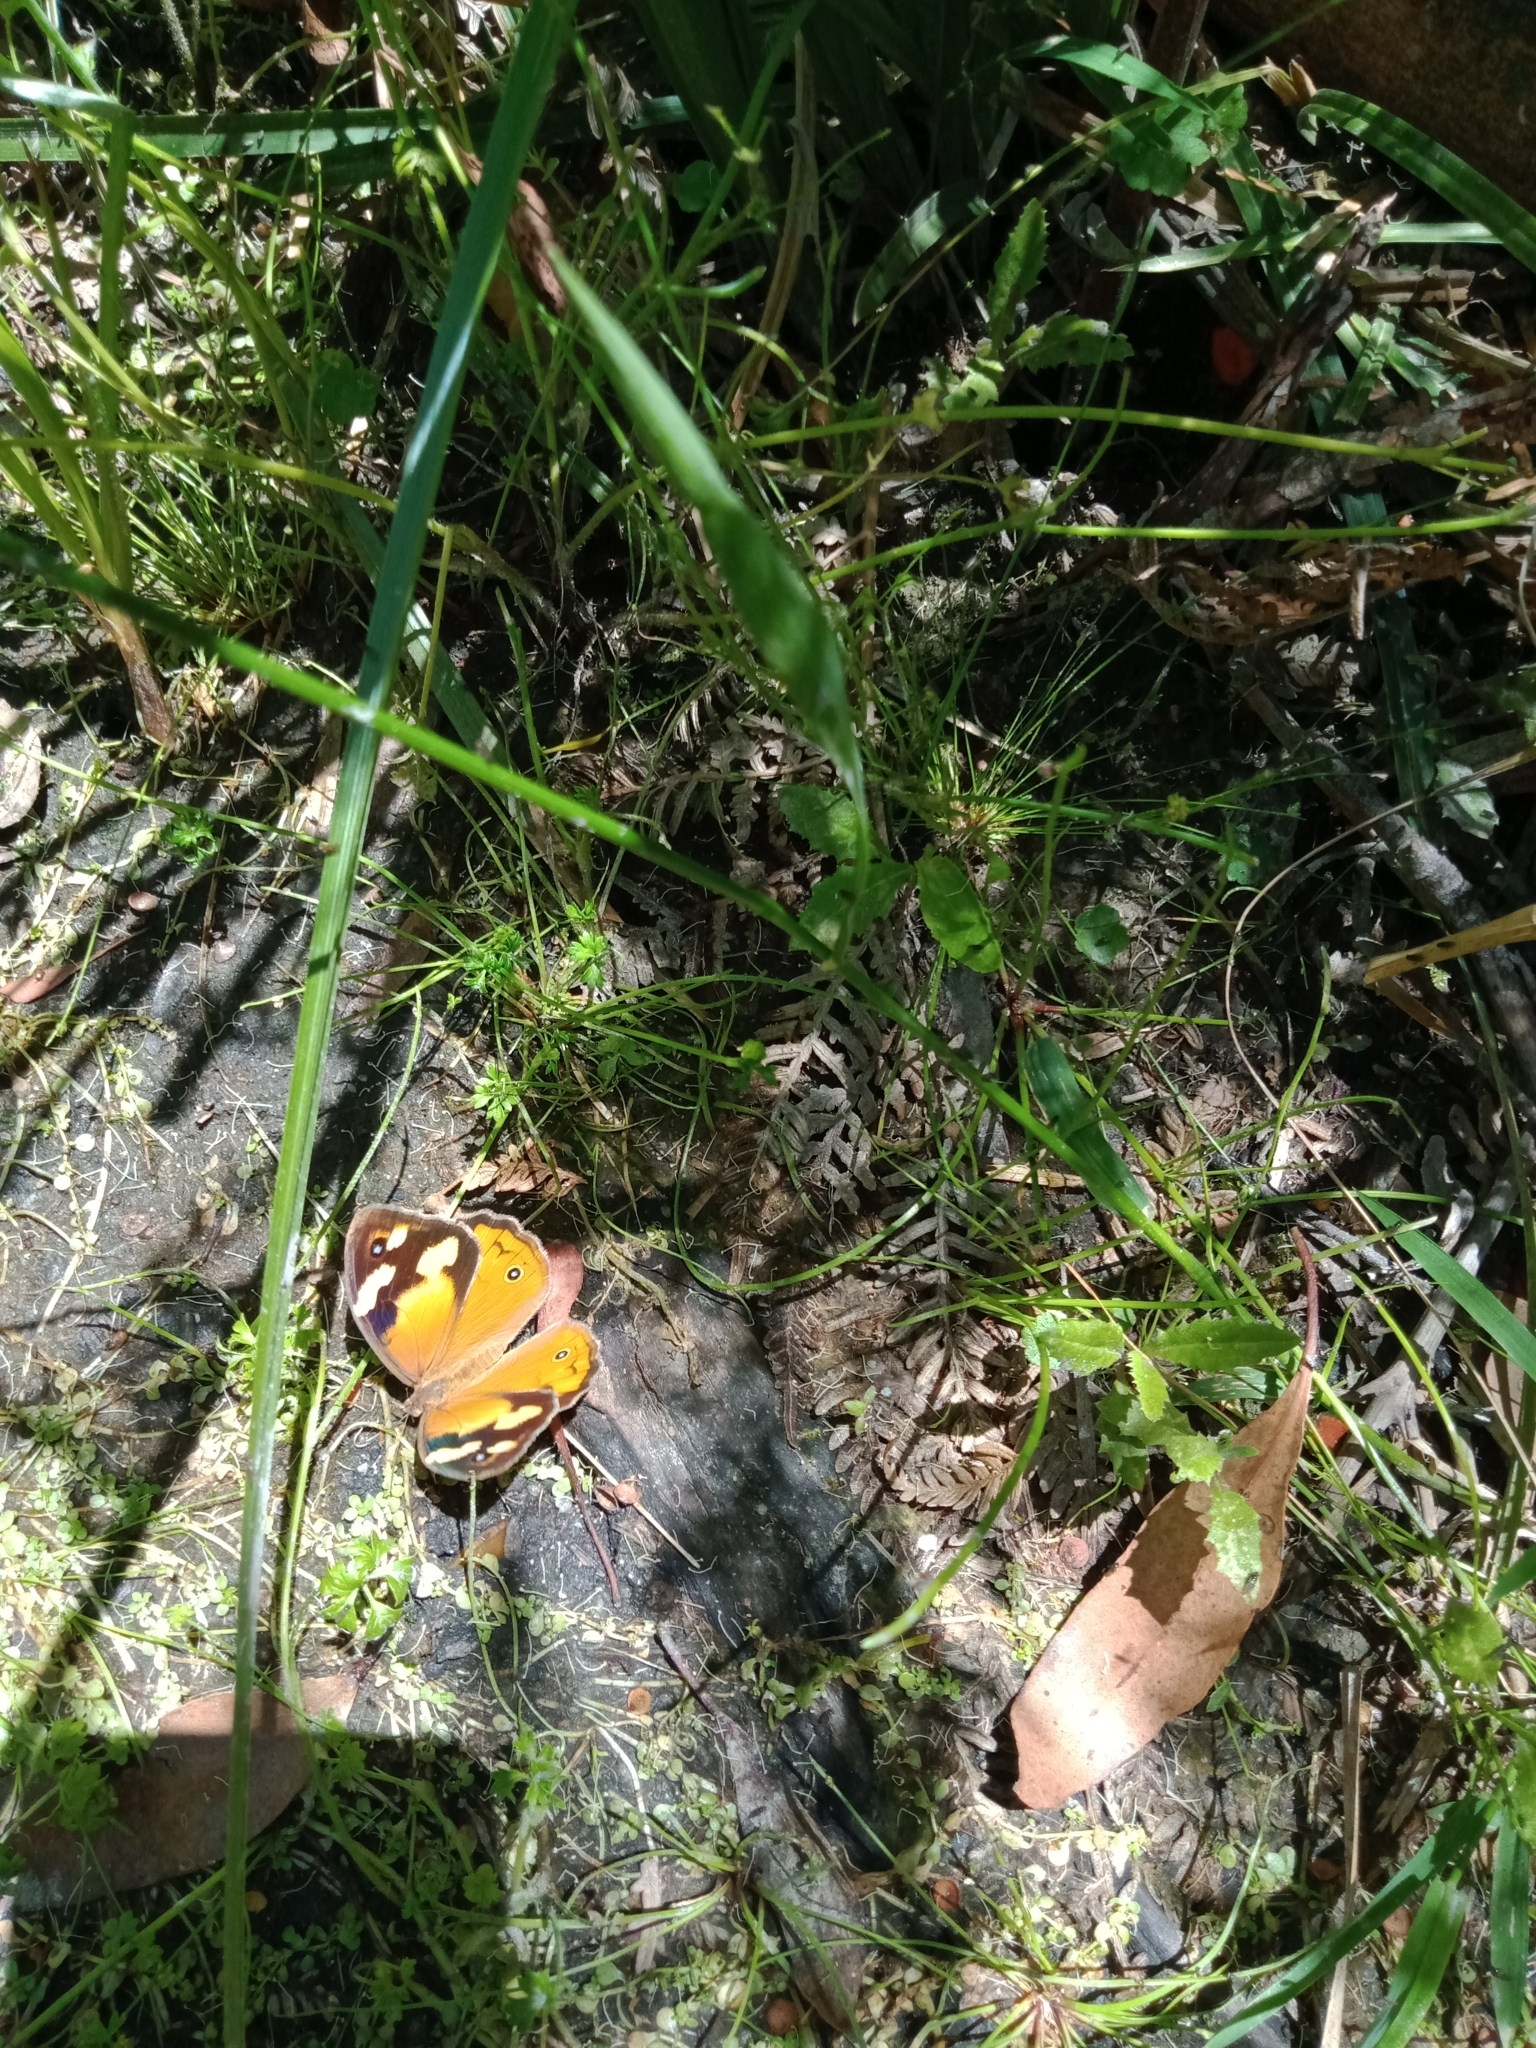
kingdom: Animalia
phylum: Arthropoda
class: Insecta
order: Lepidoptera
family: Nymphalidae
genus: Heteronympha
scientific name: Heteronympha merope
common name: Common brown
